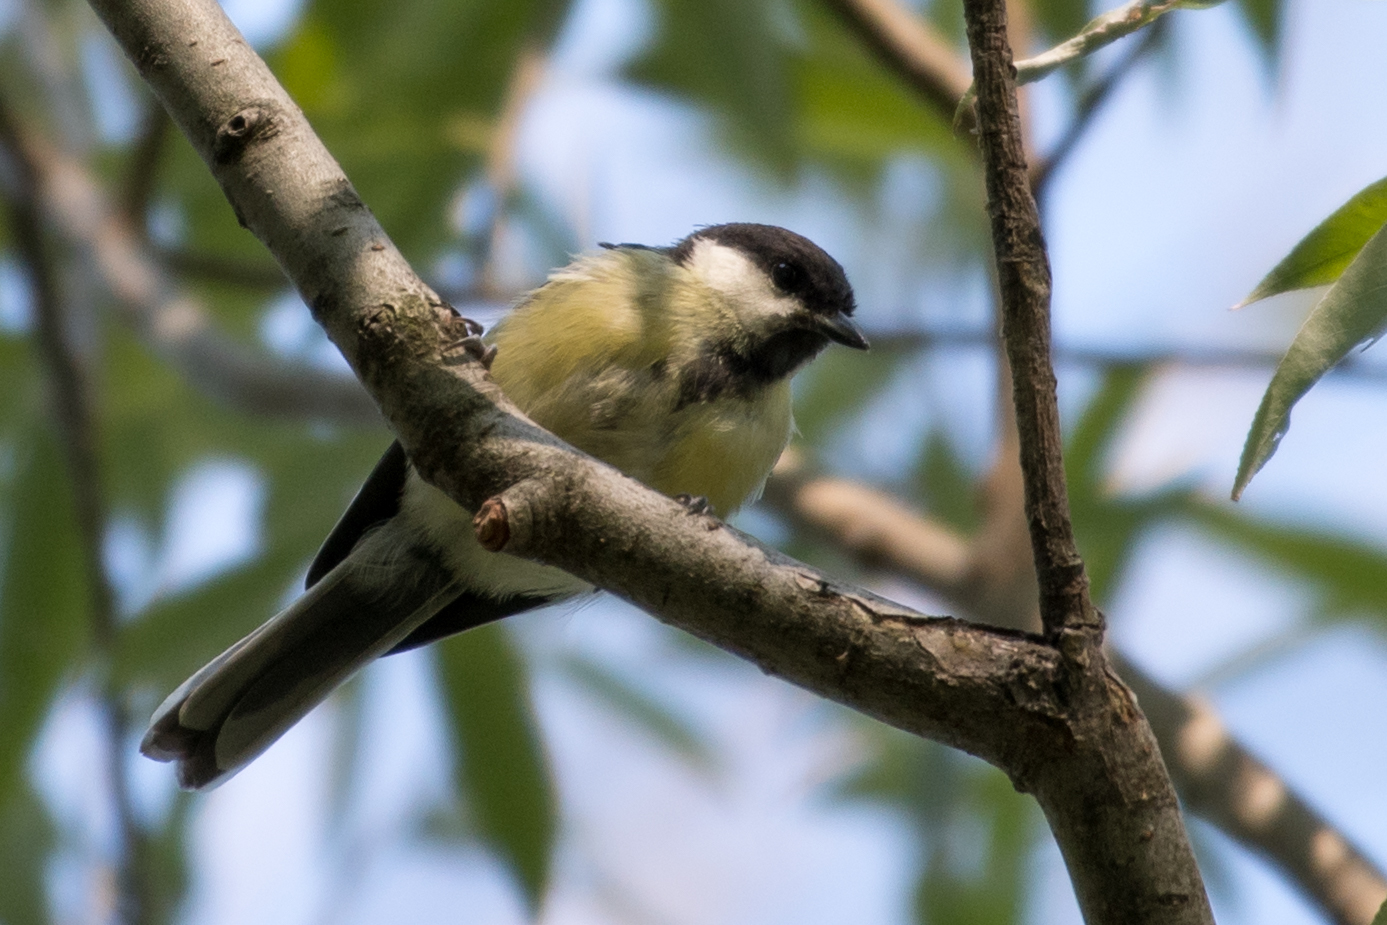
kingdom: Animalia
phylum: Chordata
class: Aves
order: Passeriformes
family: Paridae
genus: Parus
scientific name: Parus major
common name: Great tit
